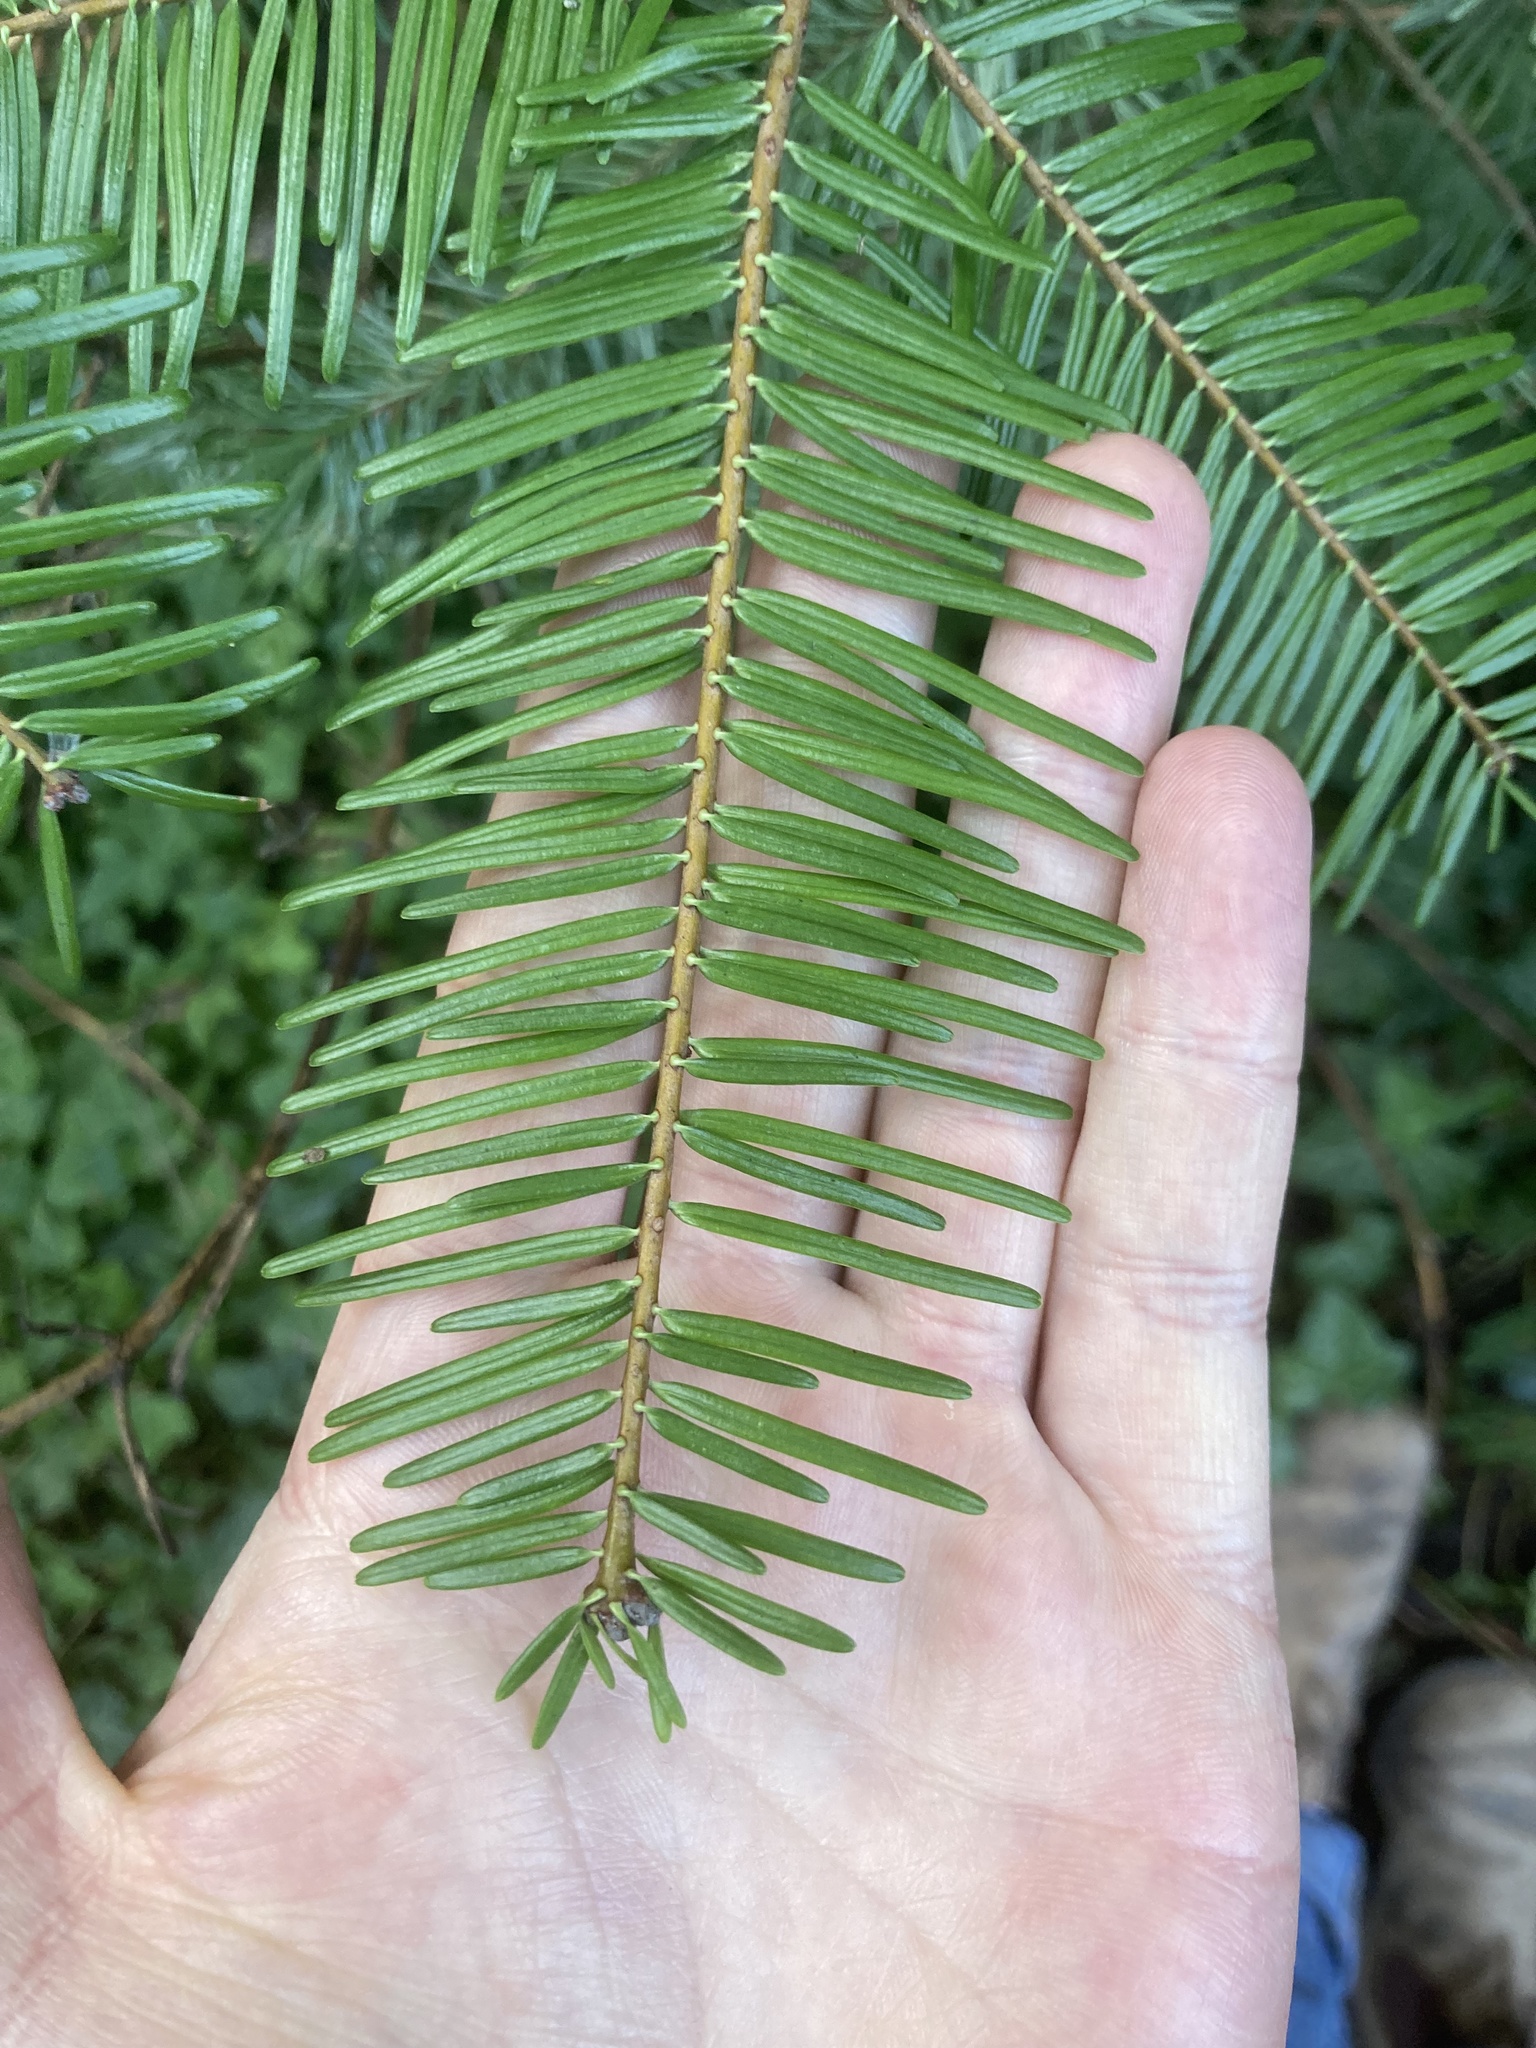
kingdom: Plantae
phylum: Tracheophyta
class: Pinopsida
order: Pinales
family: Pinaceae
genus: Abies
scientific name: Abies grandis
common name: Giant fir
